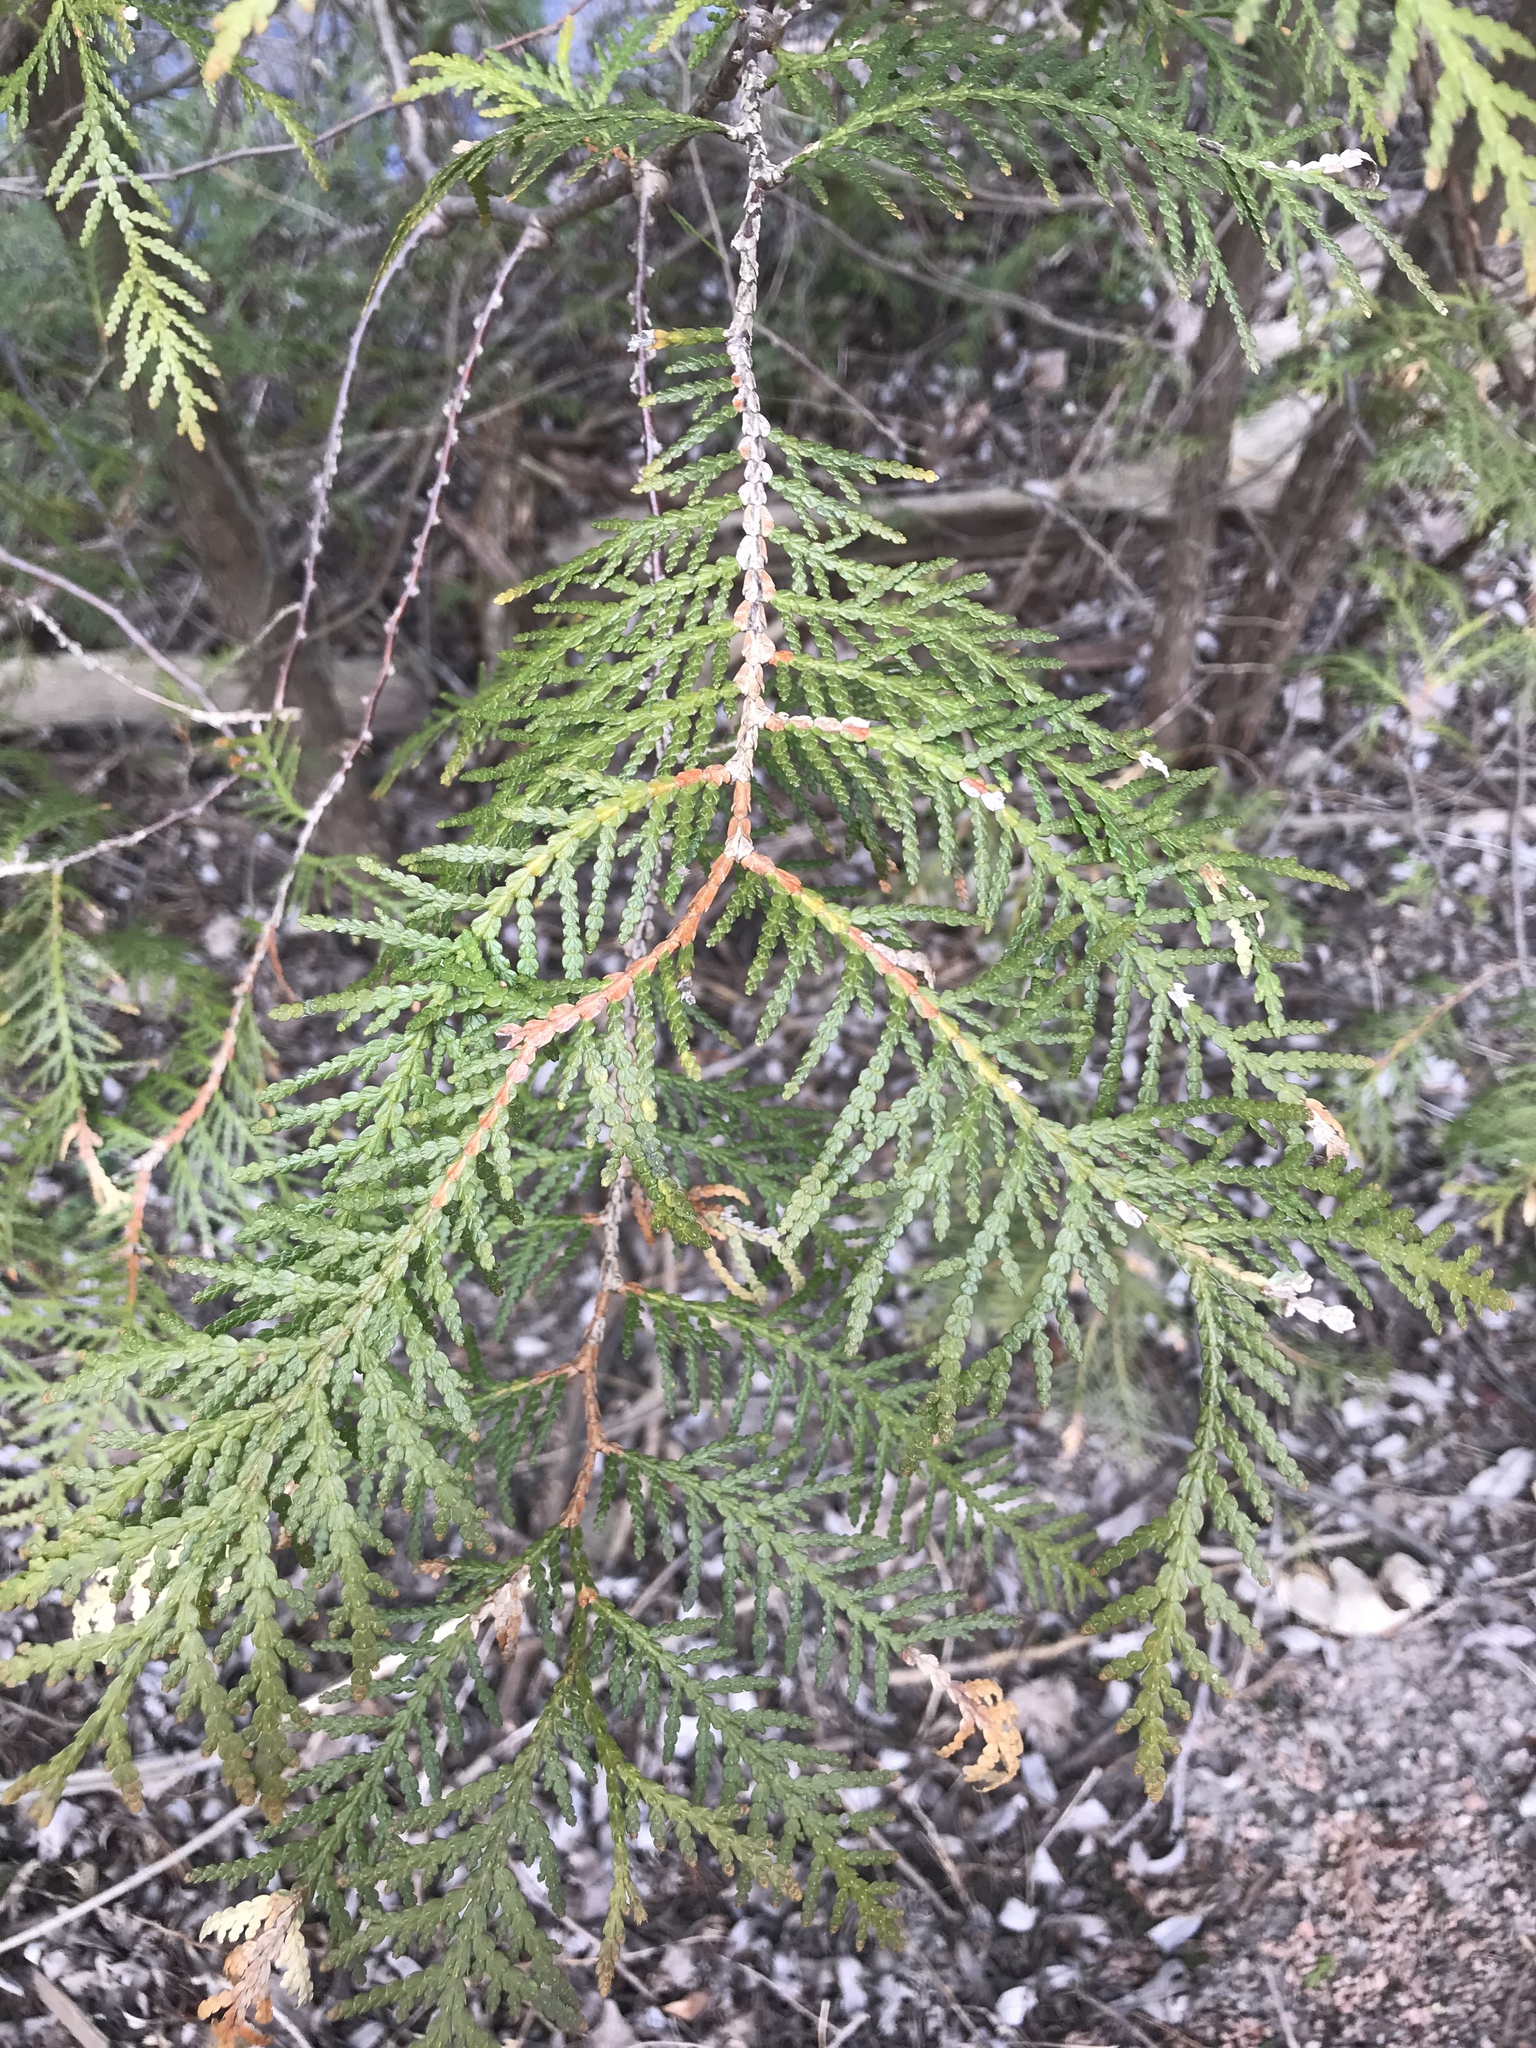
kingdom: Plantae
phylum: Tracheophyta
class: Pinopsida
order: Pinales
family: Cupressaceae
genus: Thuja
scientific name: Thuja occidentalis
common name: Northern white-cedar
